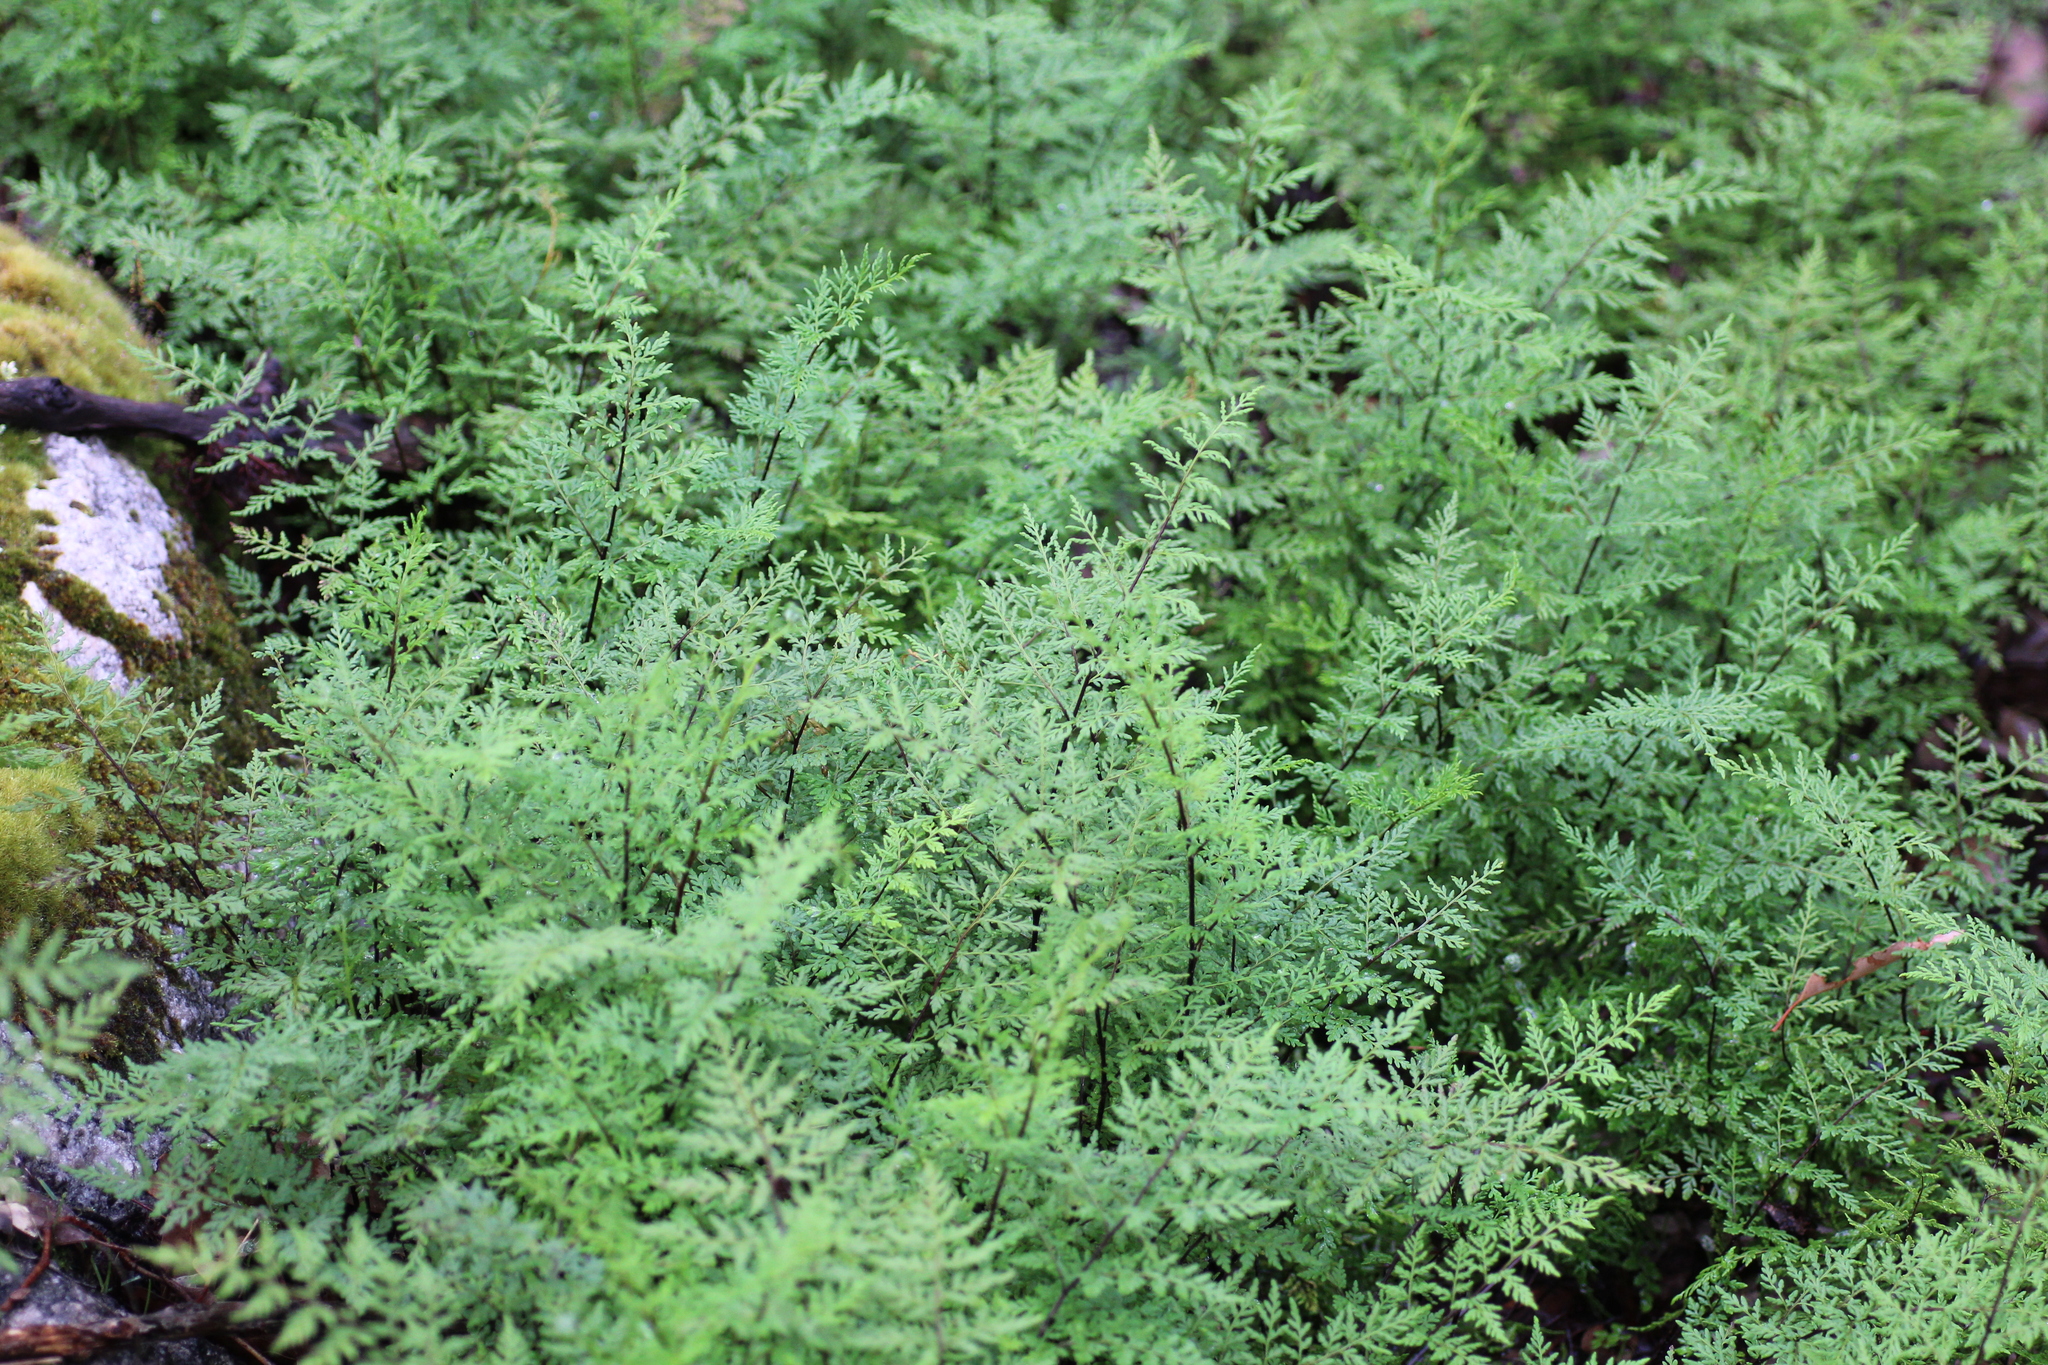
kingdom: Plantae
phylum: Tracheophyta
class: Polypodiopsida
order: Polypodiales
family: Pteridaceae
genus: Cheilanthes
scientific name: Cheilanthes austrotenuifolia
